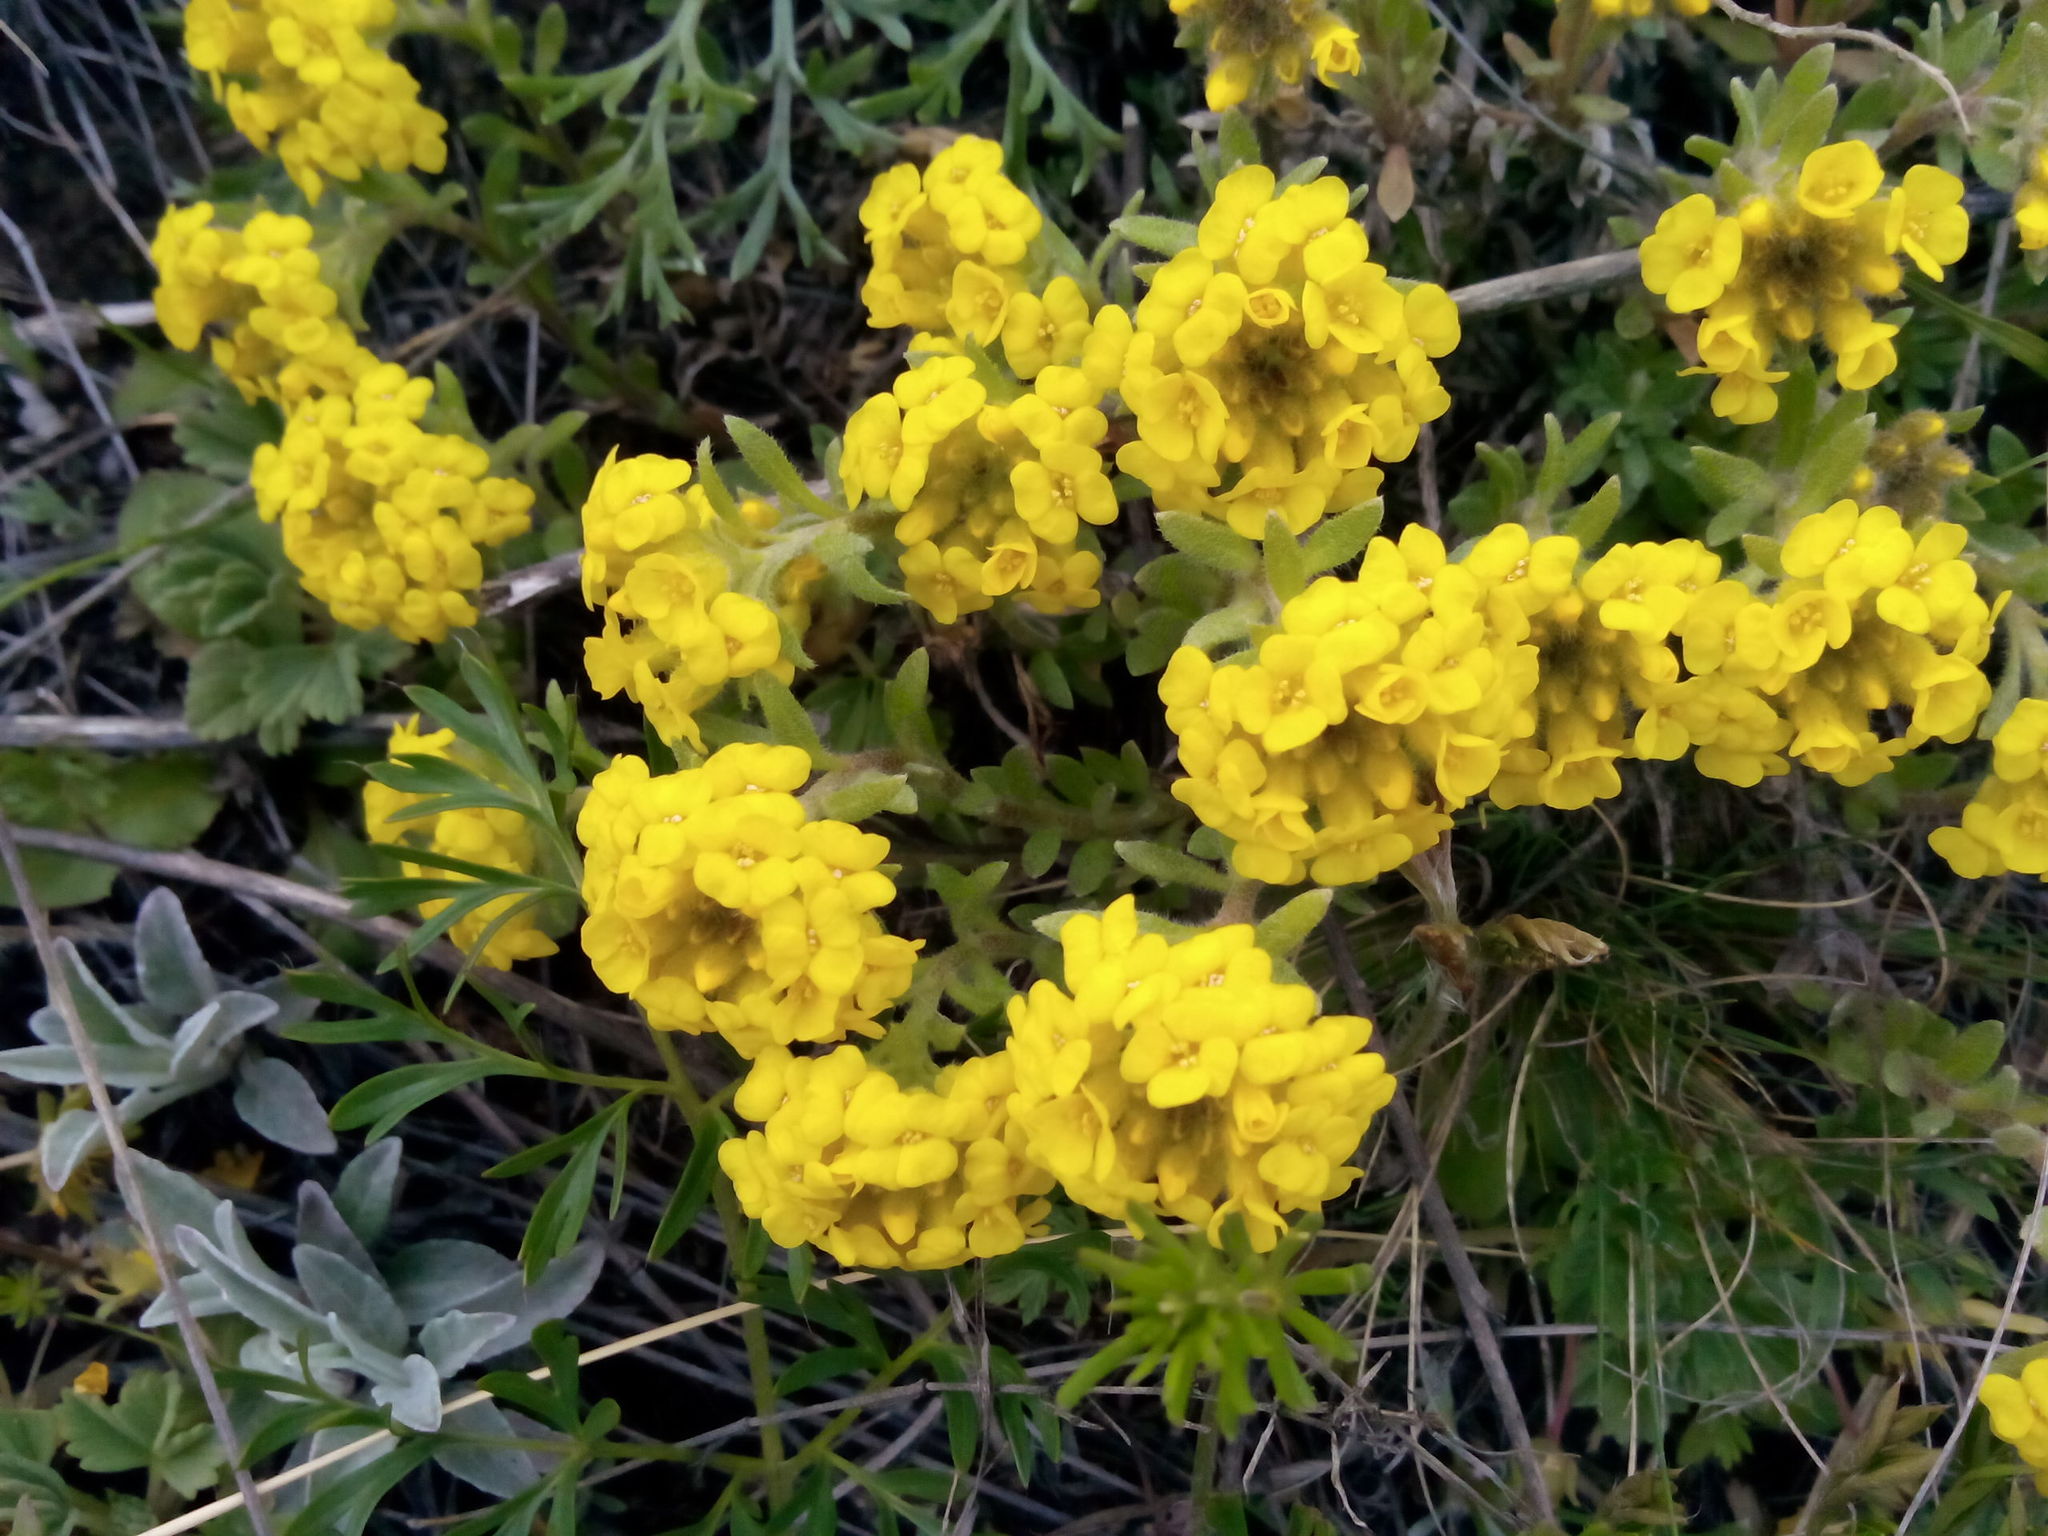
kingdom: Plantae
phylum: Tracheophyta
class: Magnoliopsida
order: Brassicales
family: Brassicaceae
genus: Alyssum
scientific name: Alyssum lenense
